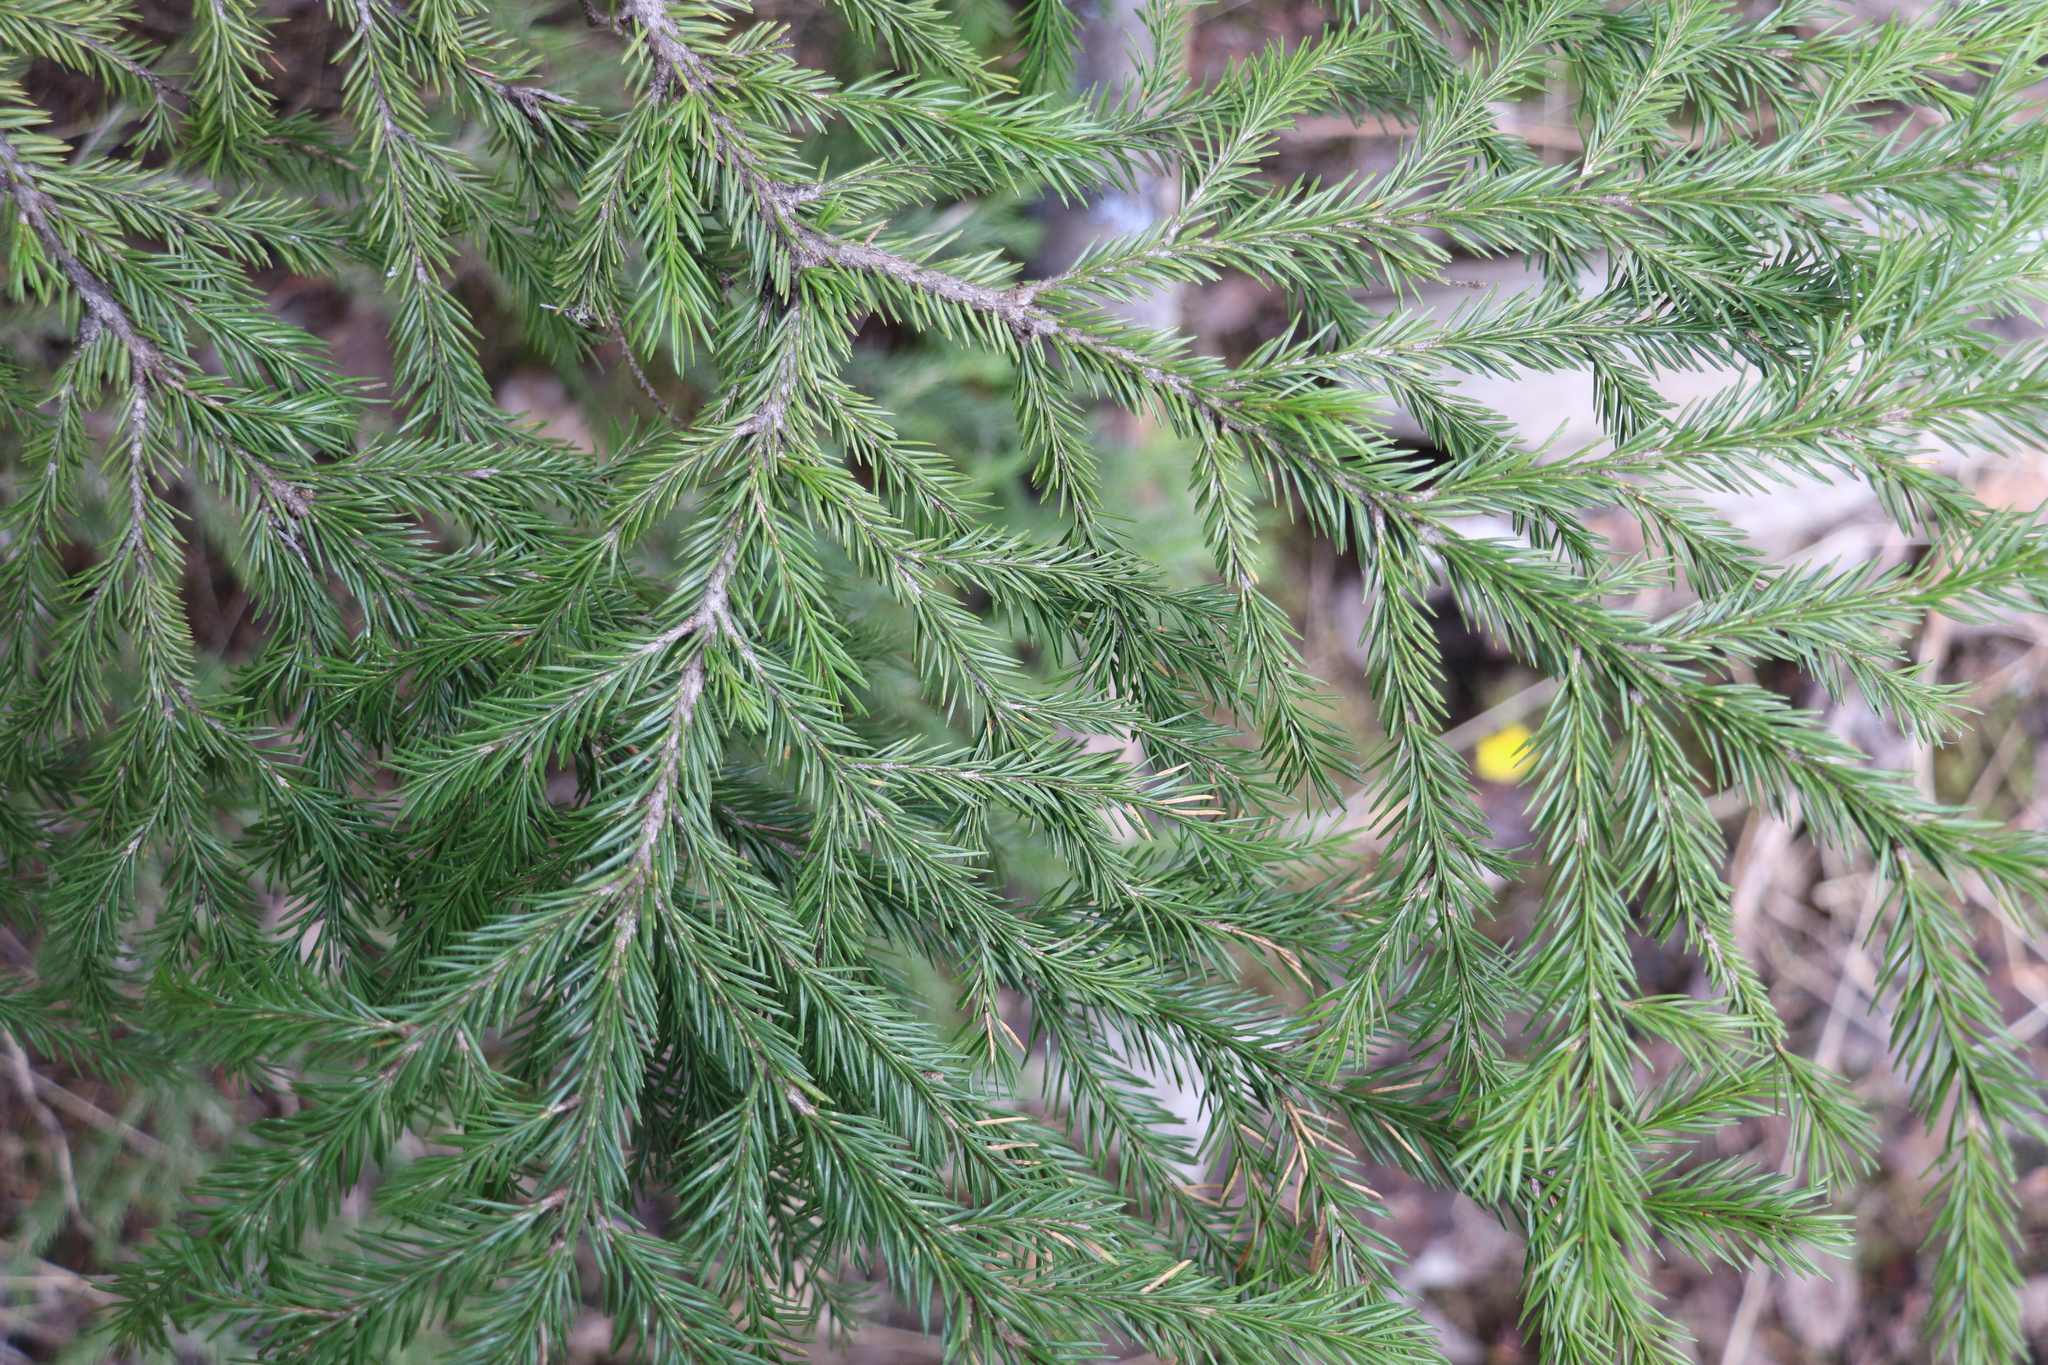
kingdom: Plantae
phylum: Tracheophyta
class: Pinopsida
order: Pinales
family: Pinaceae
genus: Picea
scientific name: Picea obovata
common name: Siberian spruce
